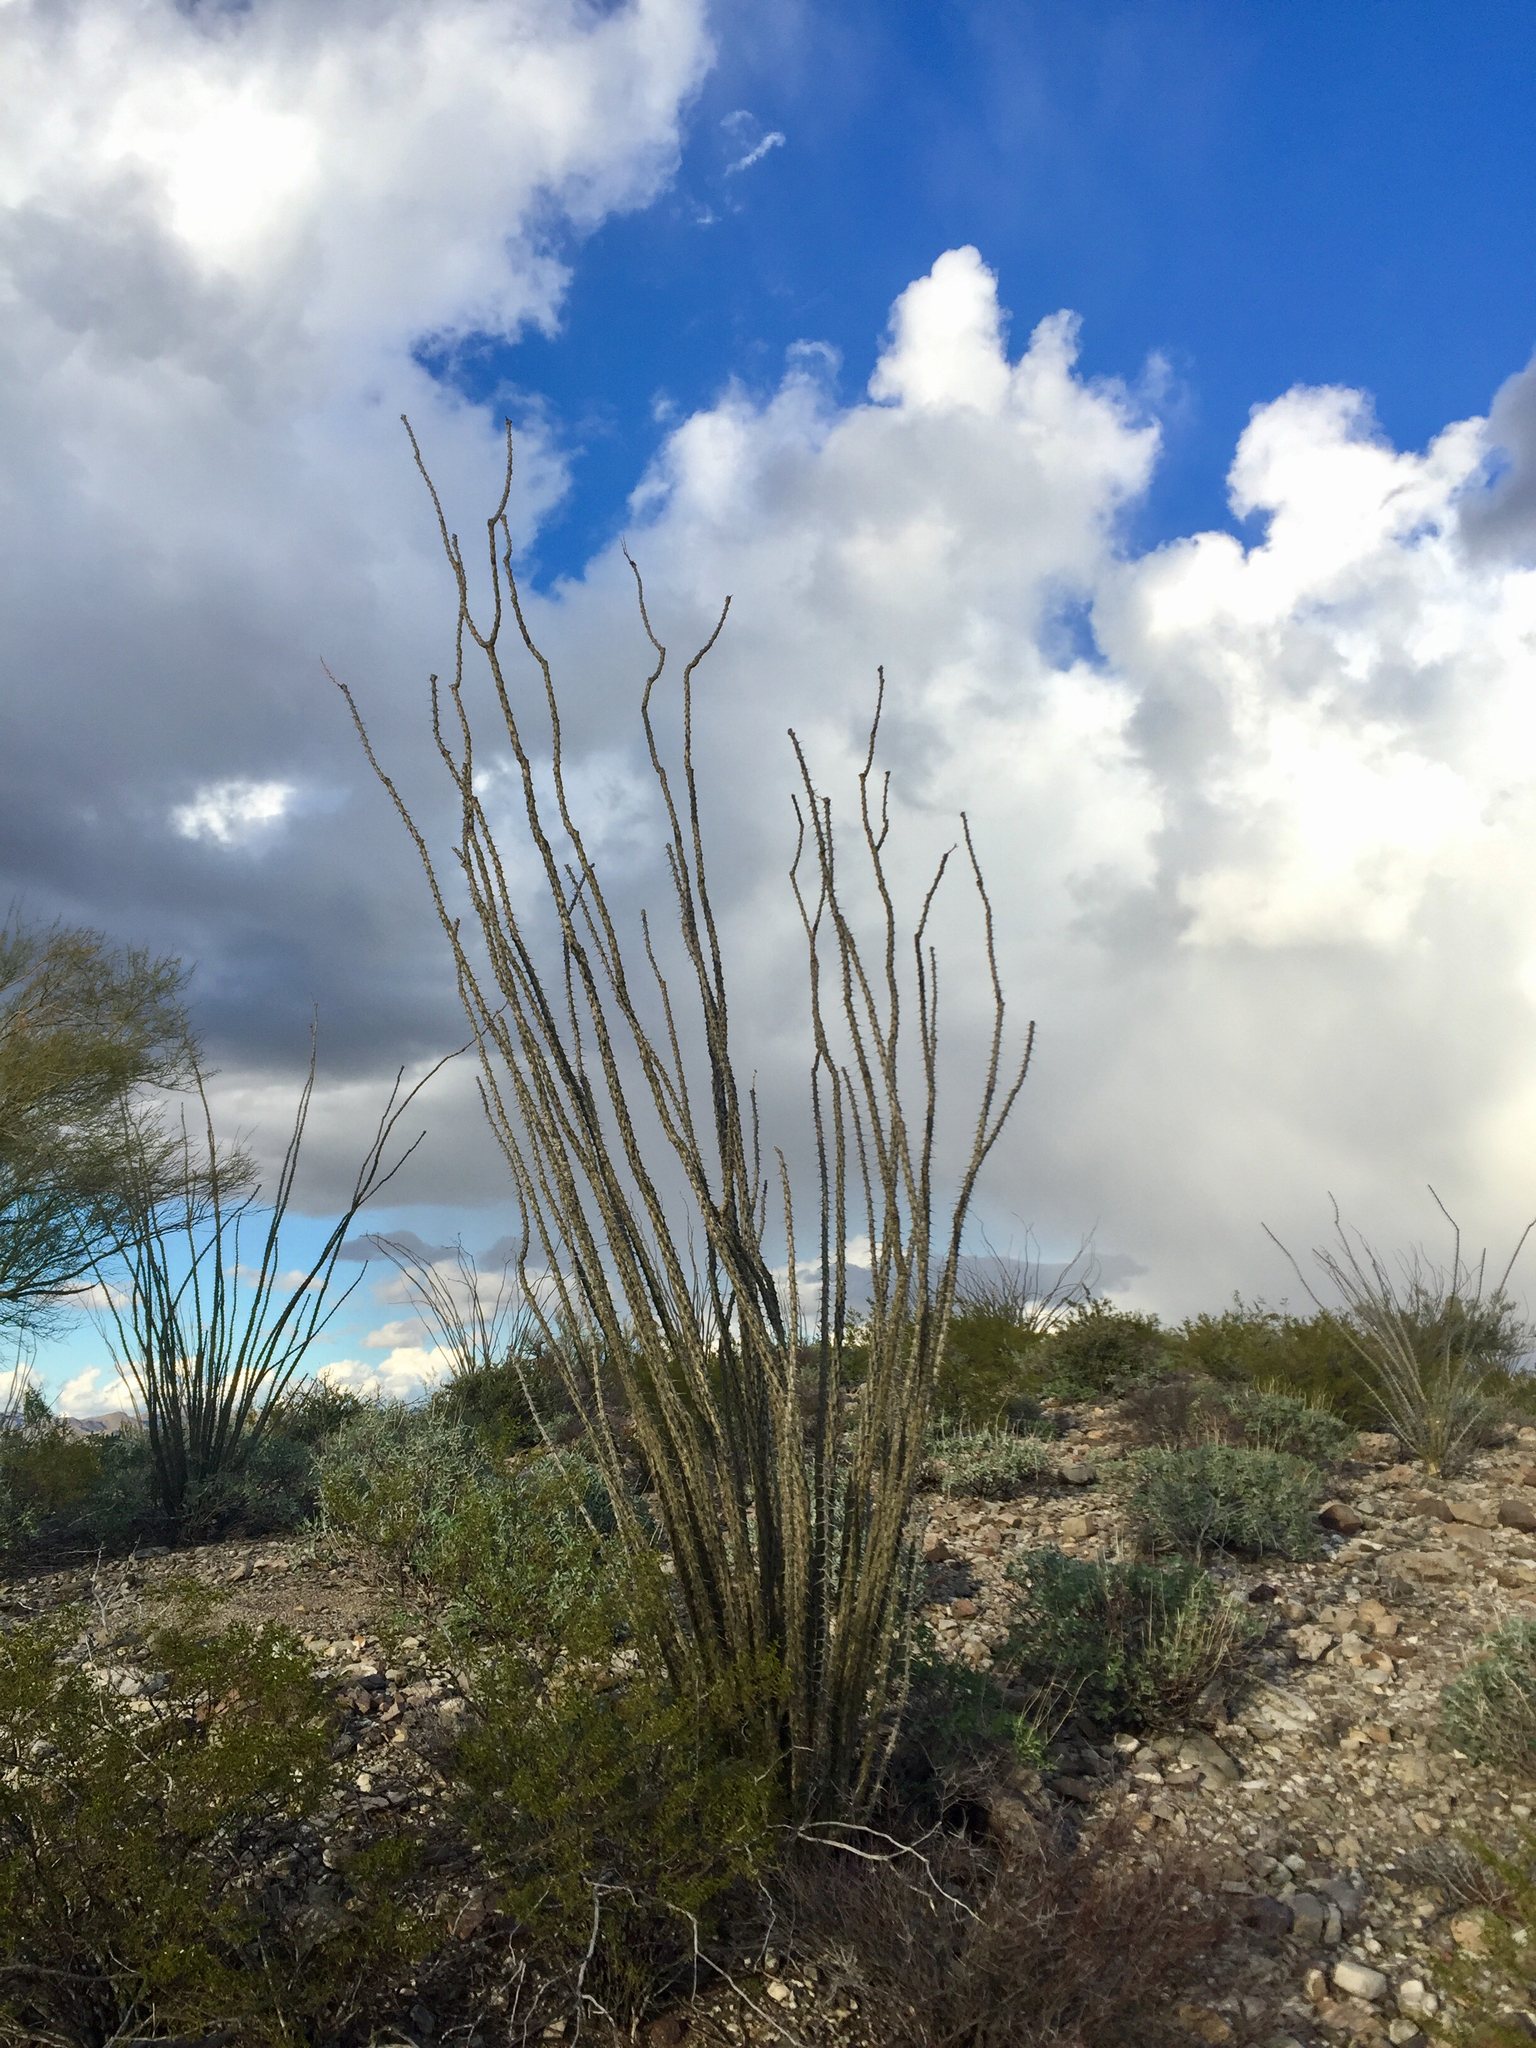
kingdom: Plantae
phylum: Tracheophyta
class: Magnoliopsida
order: Ericales
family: Fouquieriaceae
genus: Fouquieria
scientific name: Fouquieria splendens
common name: Vine-cactus
